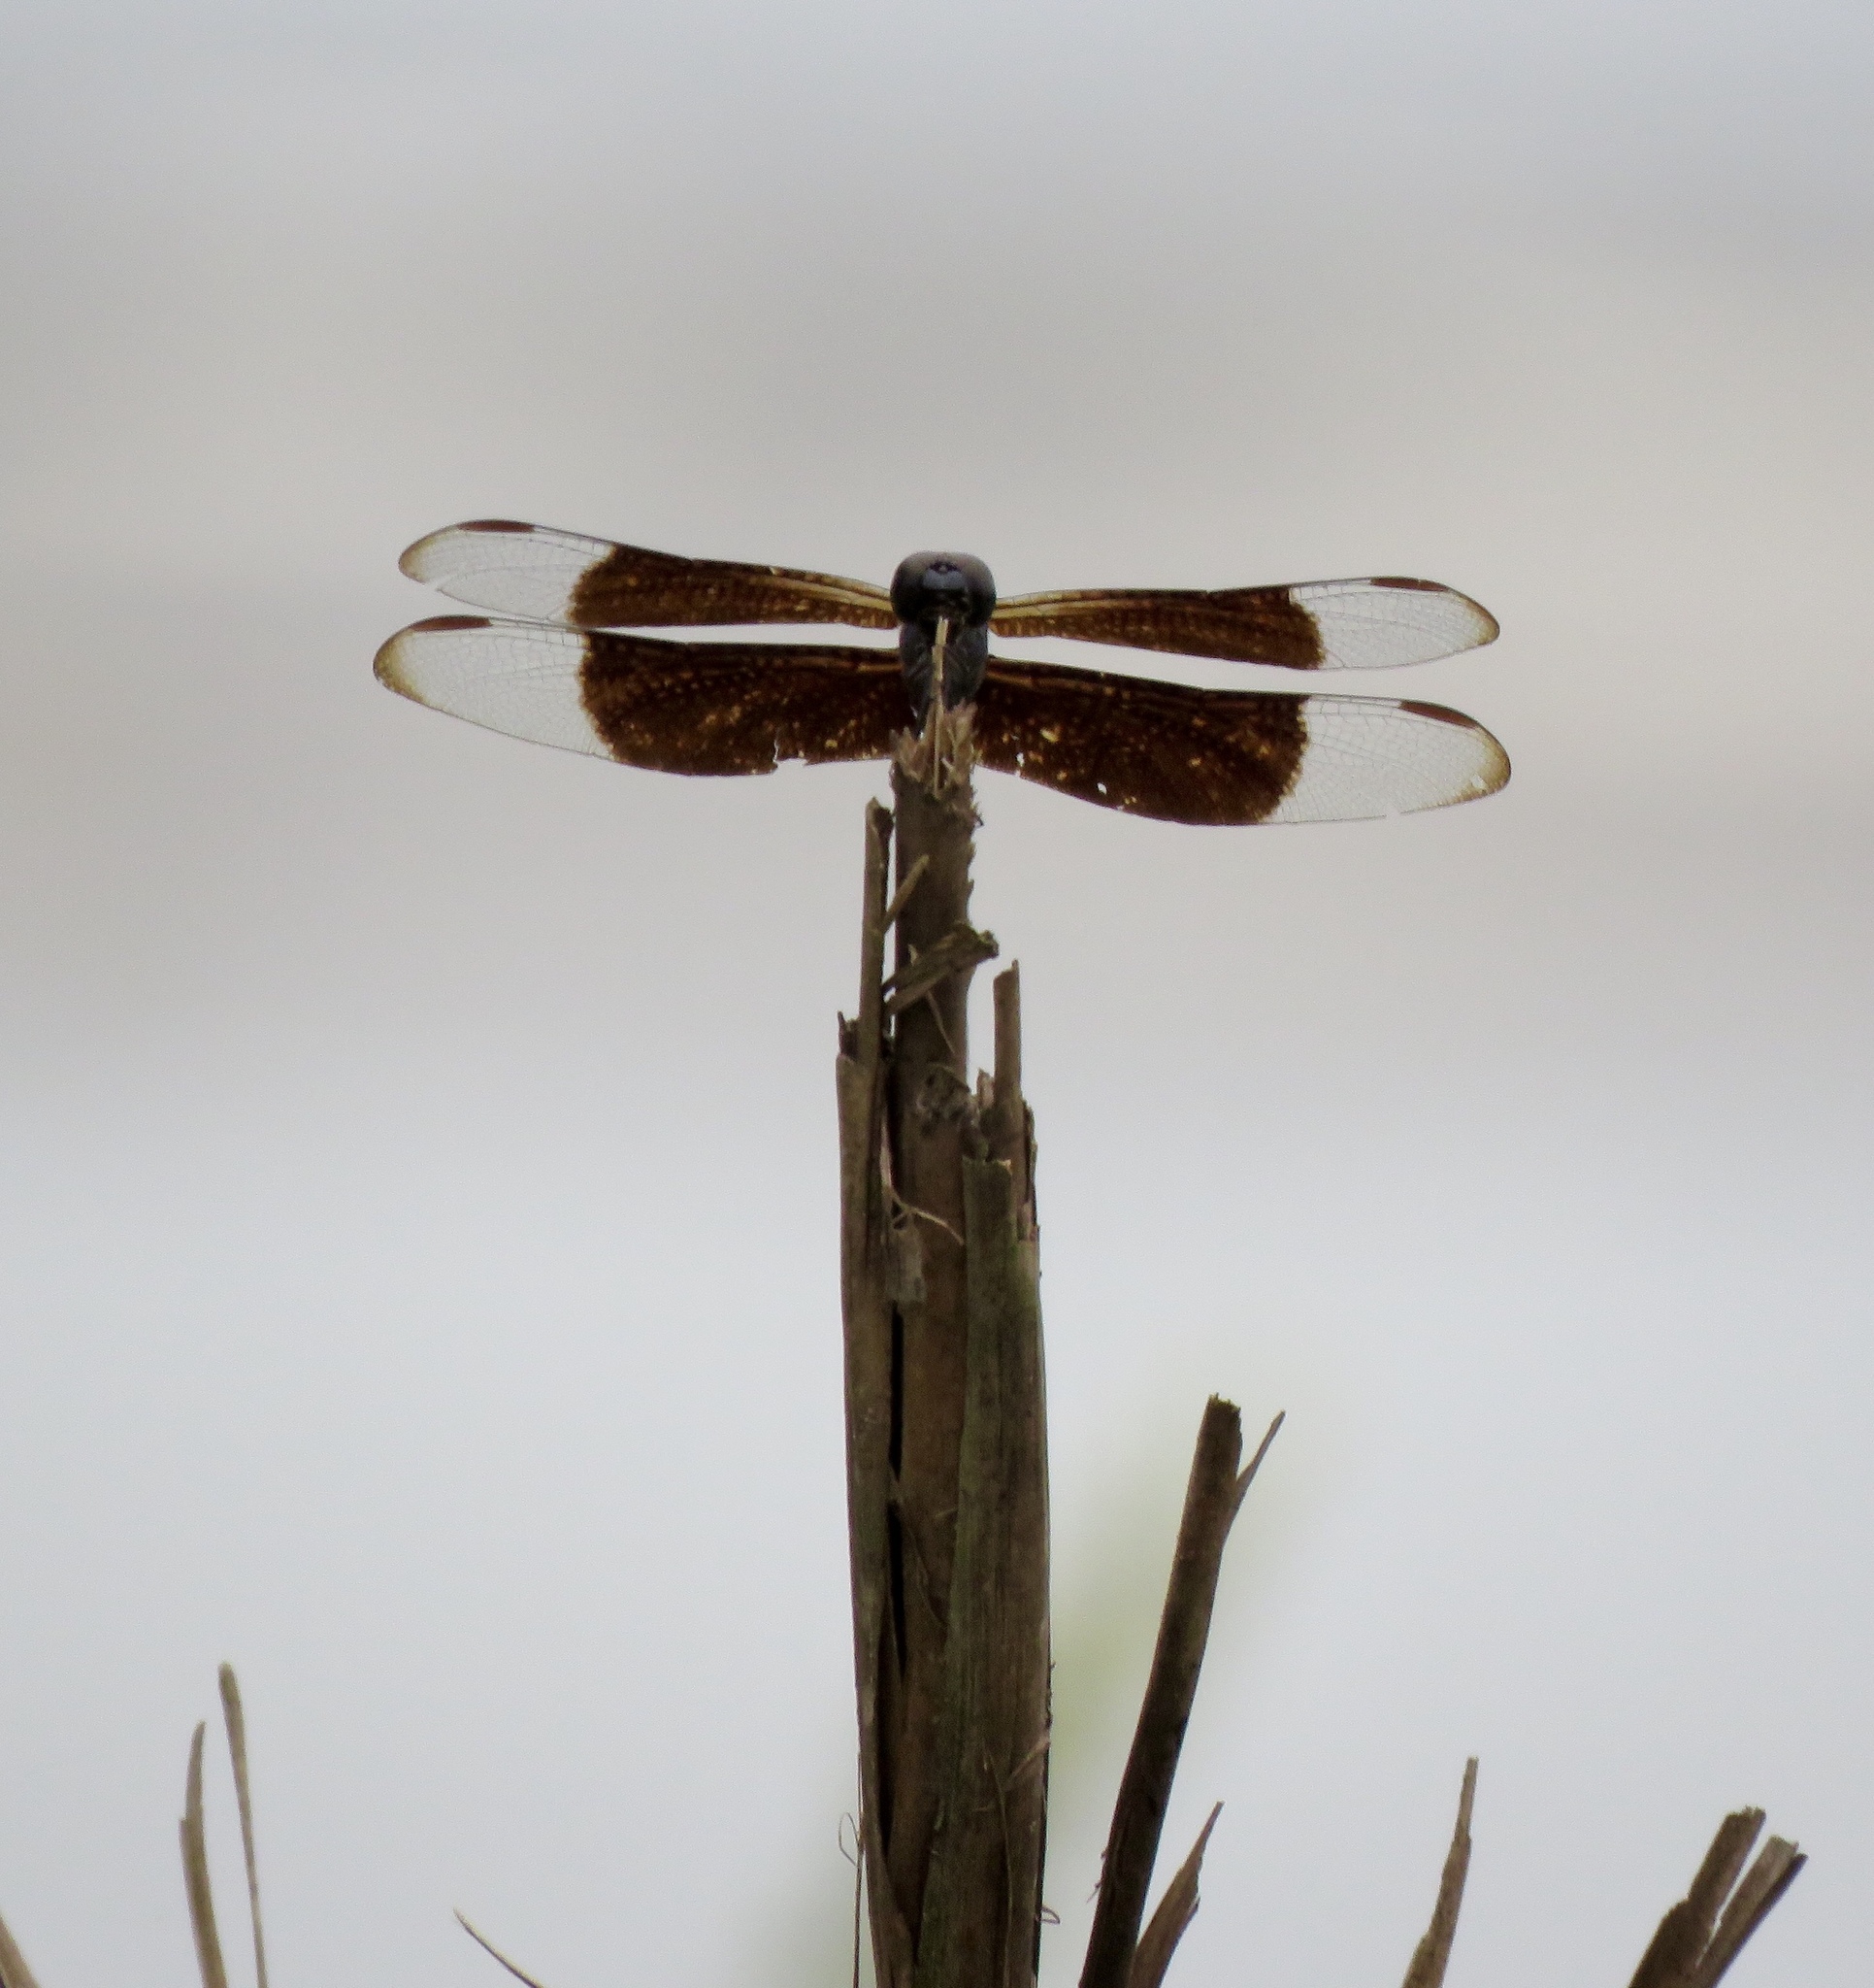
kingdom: Animalia
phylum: Arthropoda
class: Insecta
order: Odonata
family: Libellulidae
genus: Erythrodiplax
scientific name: Erythrodiplax funerea
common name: Black-winged dragonlet
